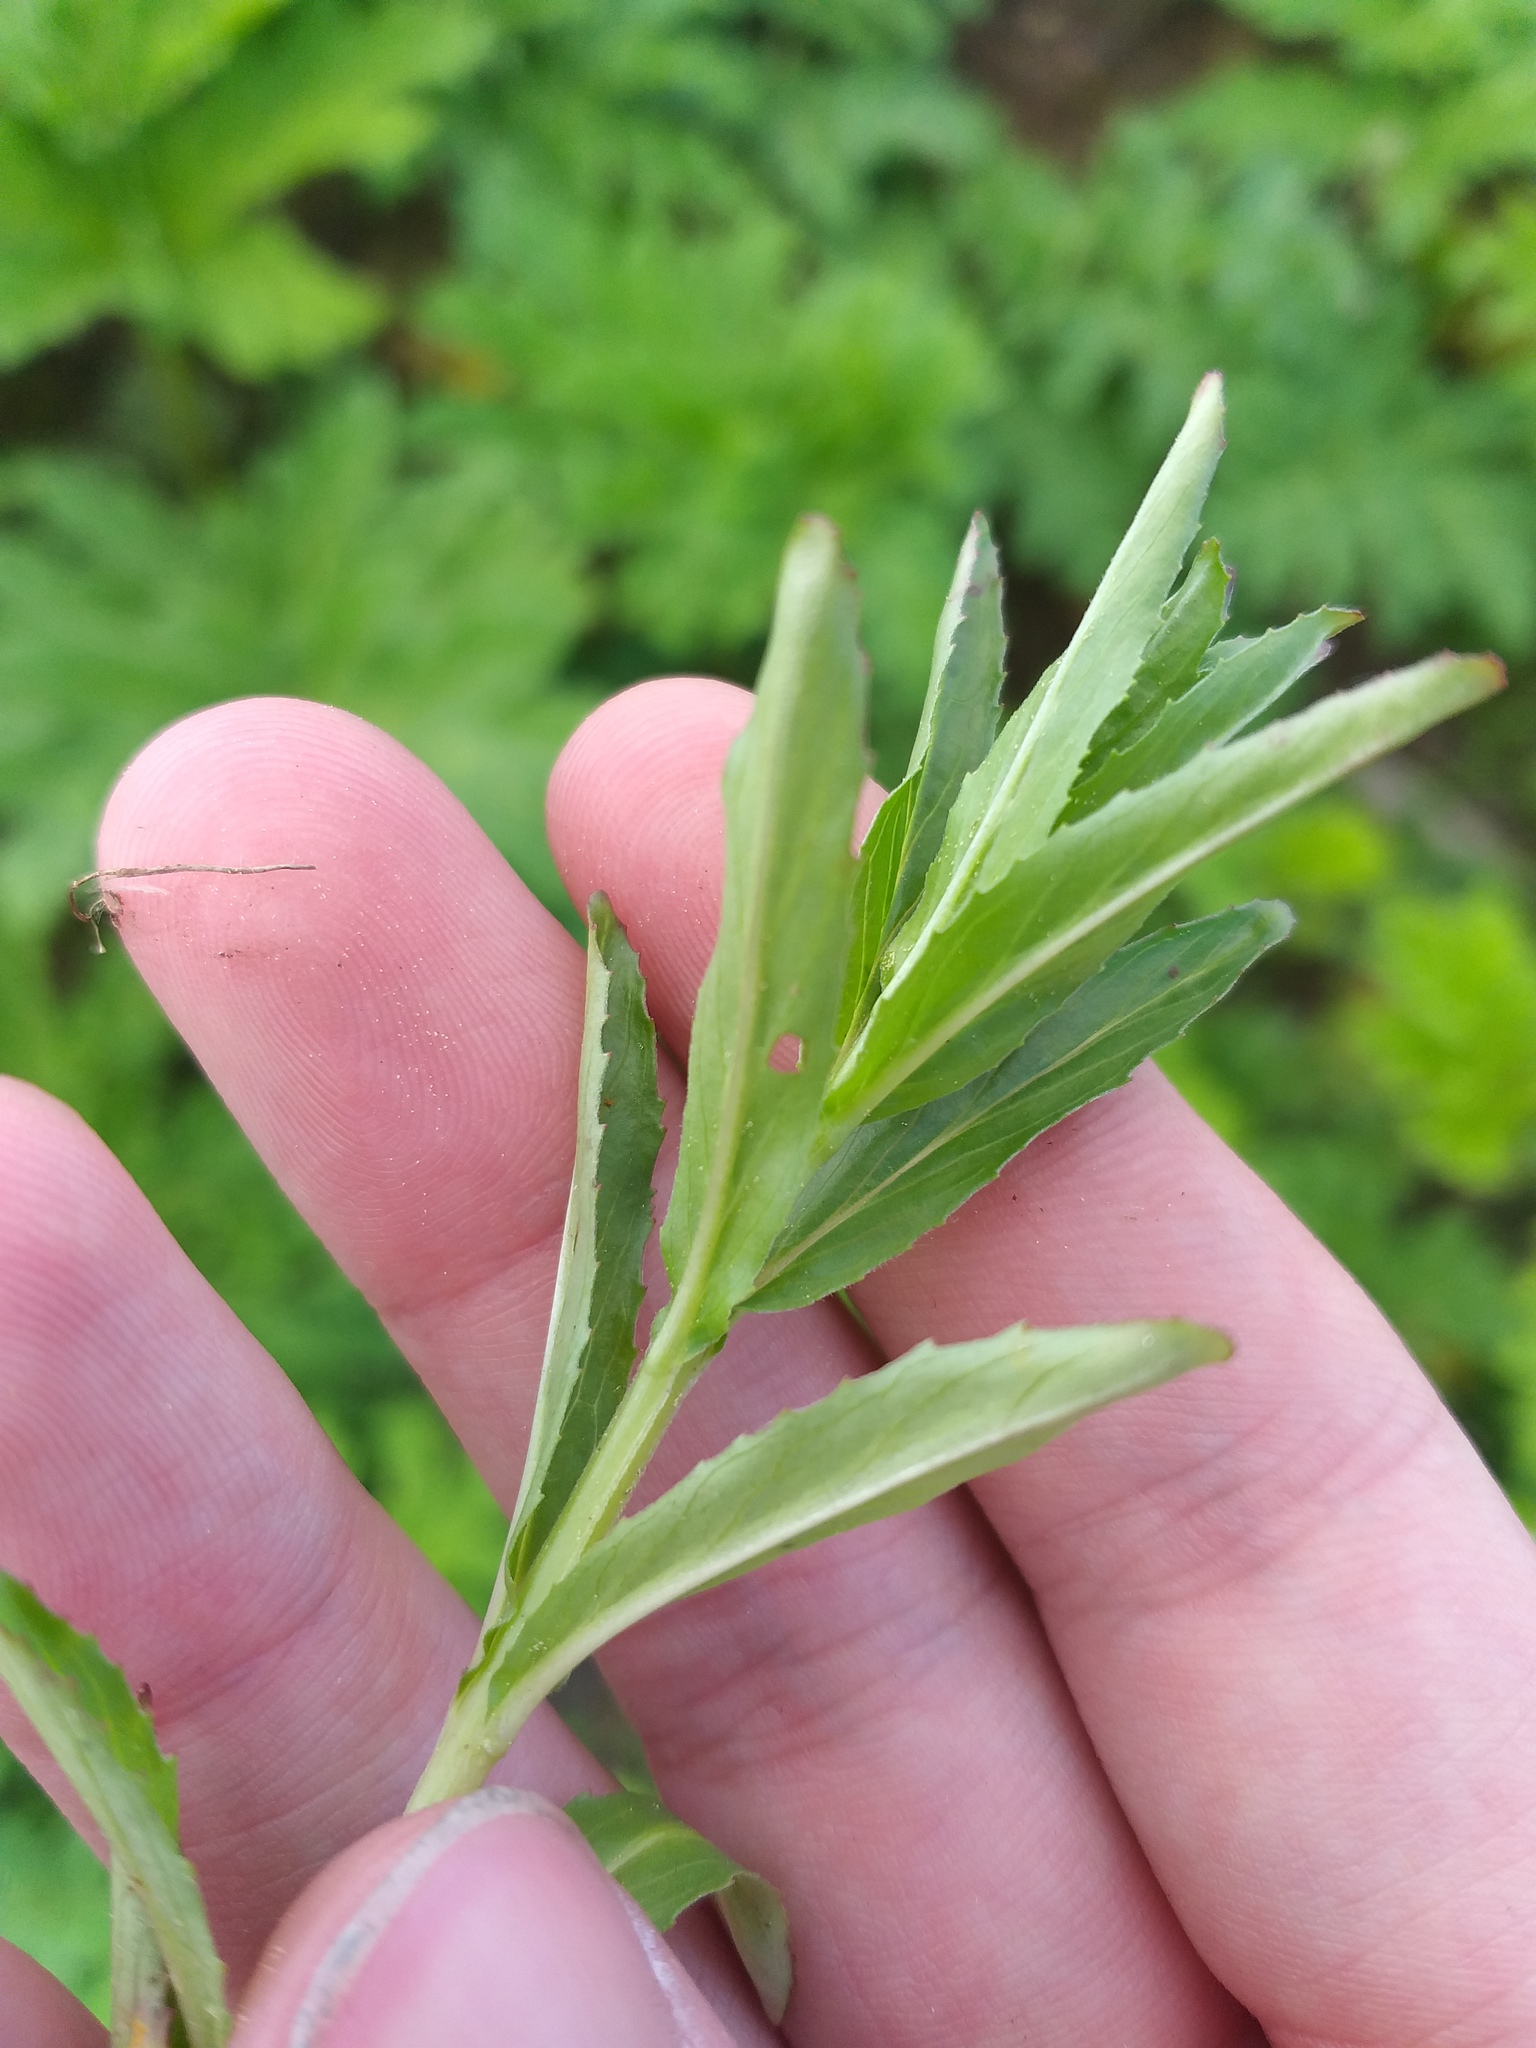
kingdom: Plantae
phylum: Tracheophyta
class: Magnoliopsida
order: Myrtales
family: Onagraceae
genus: Epilobium
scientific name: Epilobium tetragonum
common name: Square-stemmed willowherb
